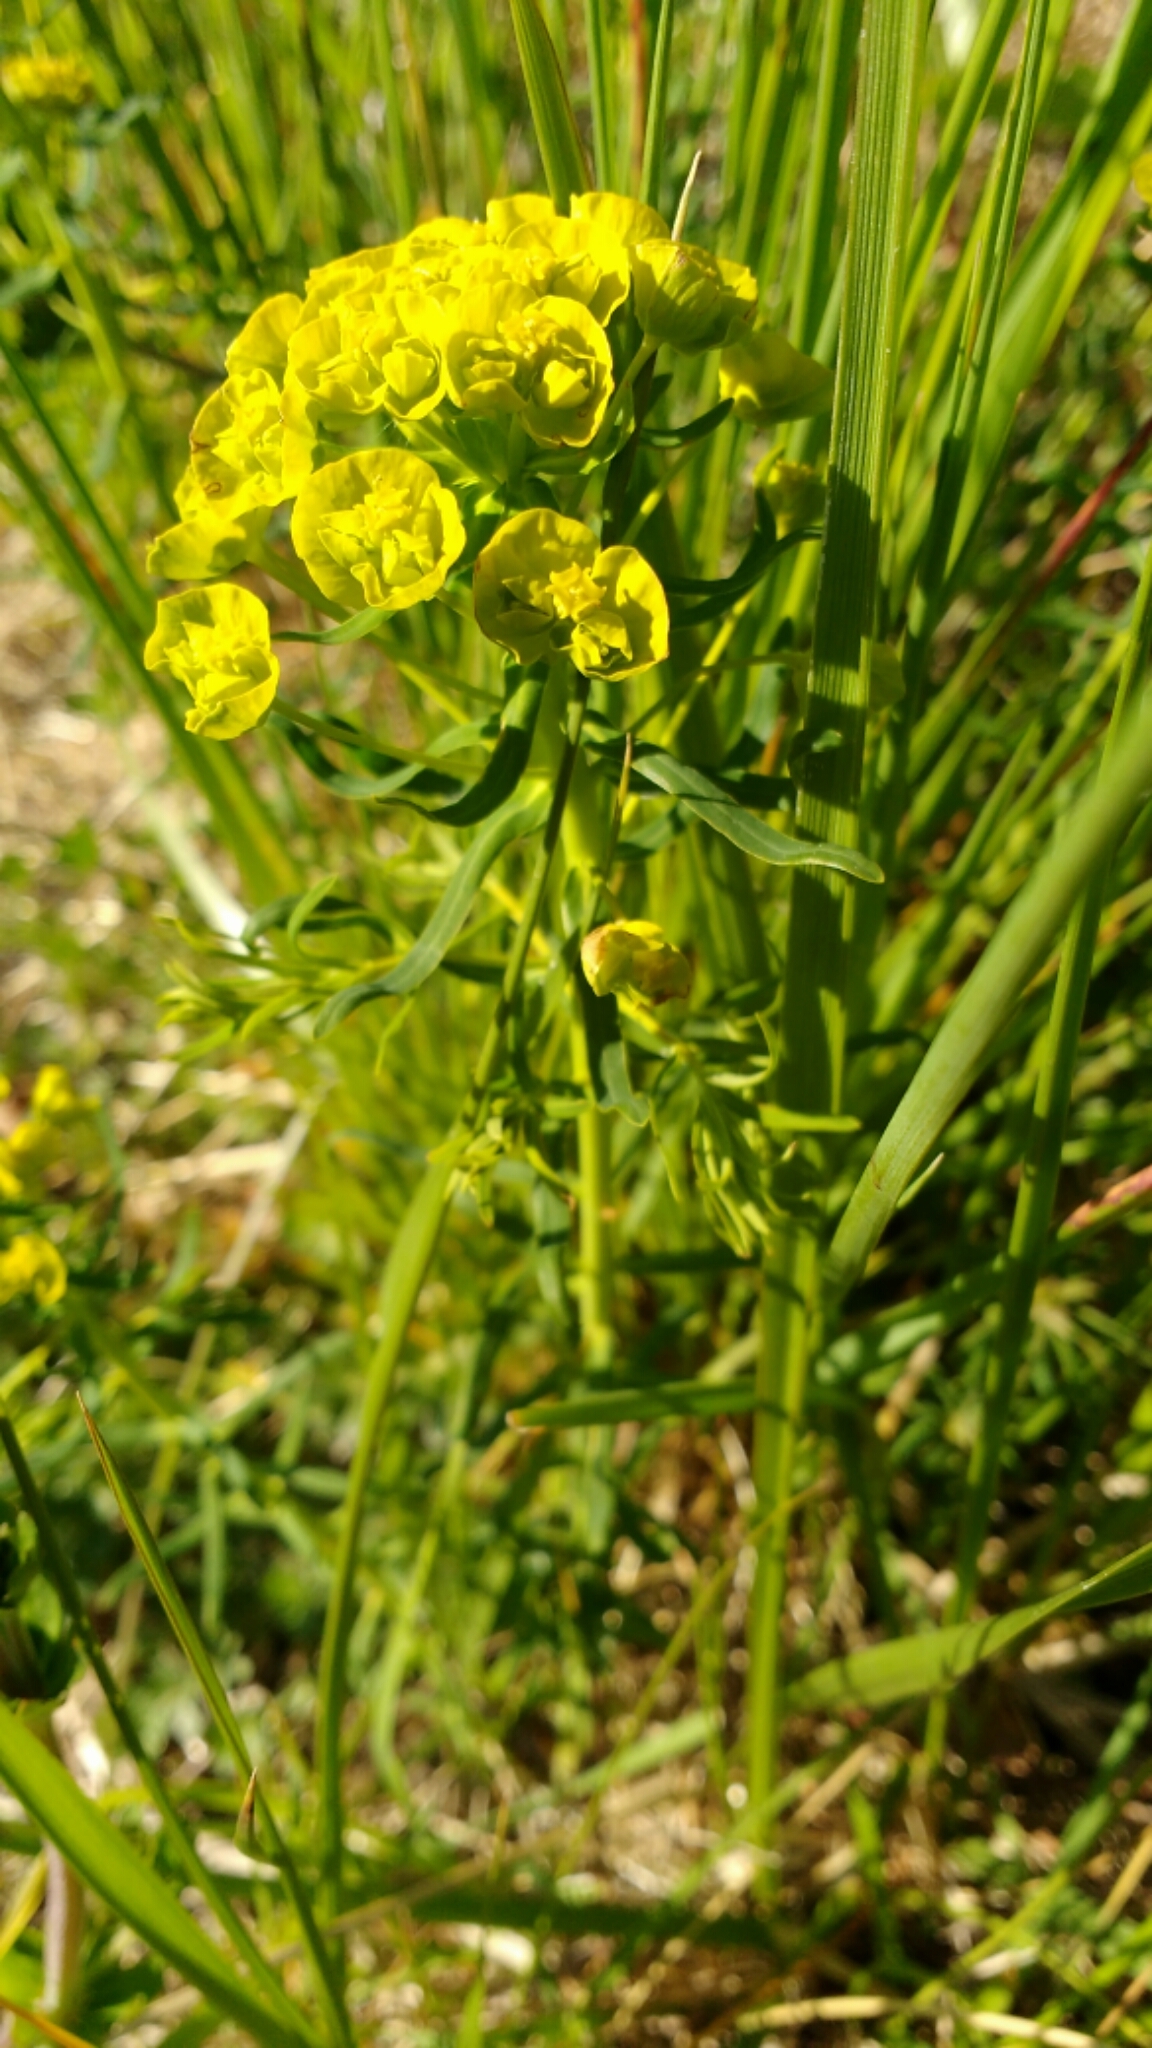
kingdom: Plantae
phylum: Tracheophyta
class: Magnoliopsida
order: Malpighiales
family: Euphorbiaceae
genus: Euphorbia
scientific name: Euphorbia cyparissias
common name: Cypress spurge
